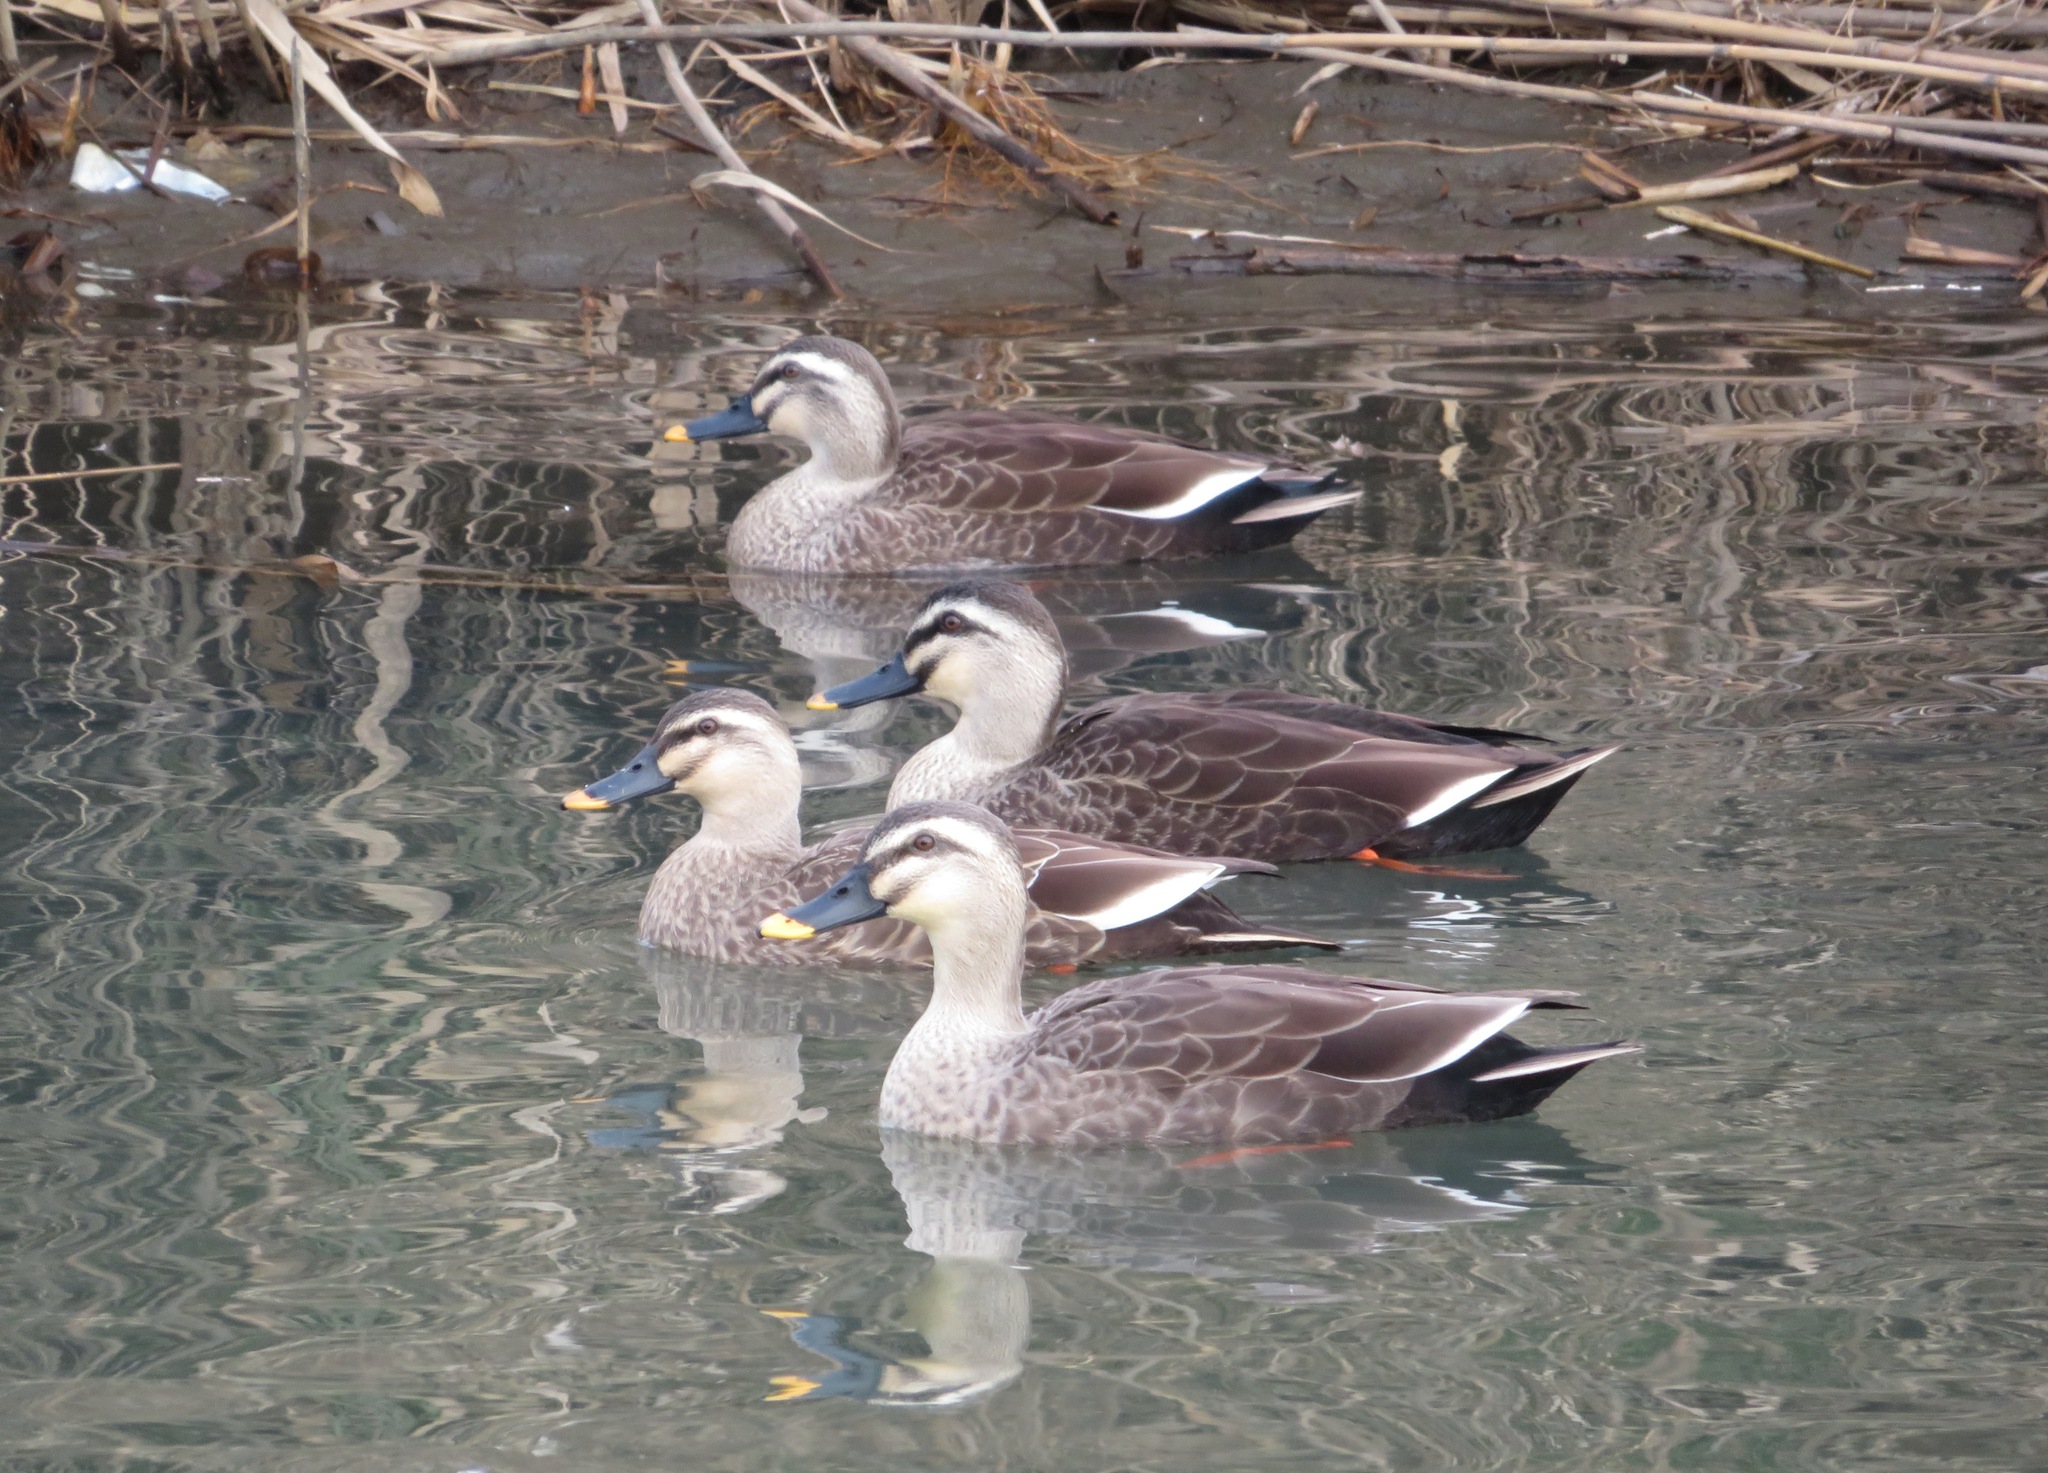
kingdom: Animalia
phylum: Chordata
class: Aves
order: Anseriformes
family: Anatidae
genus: Anas
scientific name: Anas zonorhyncha
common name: Eastern spot-billed duck
